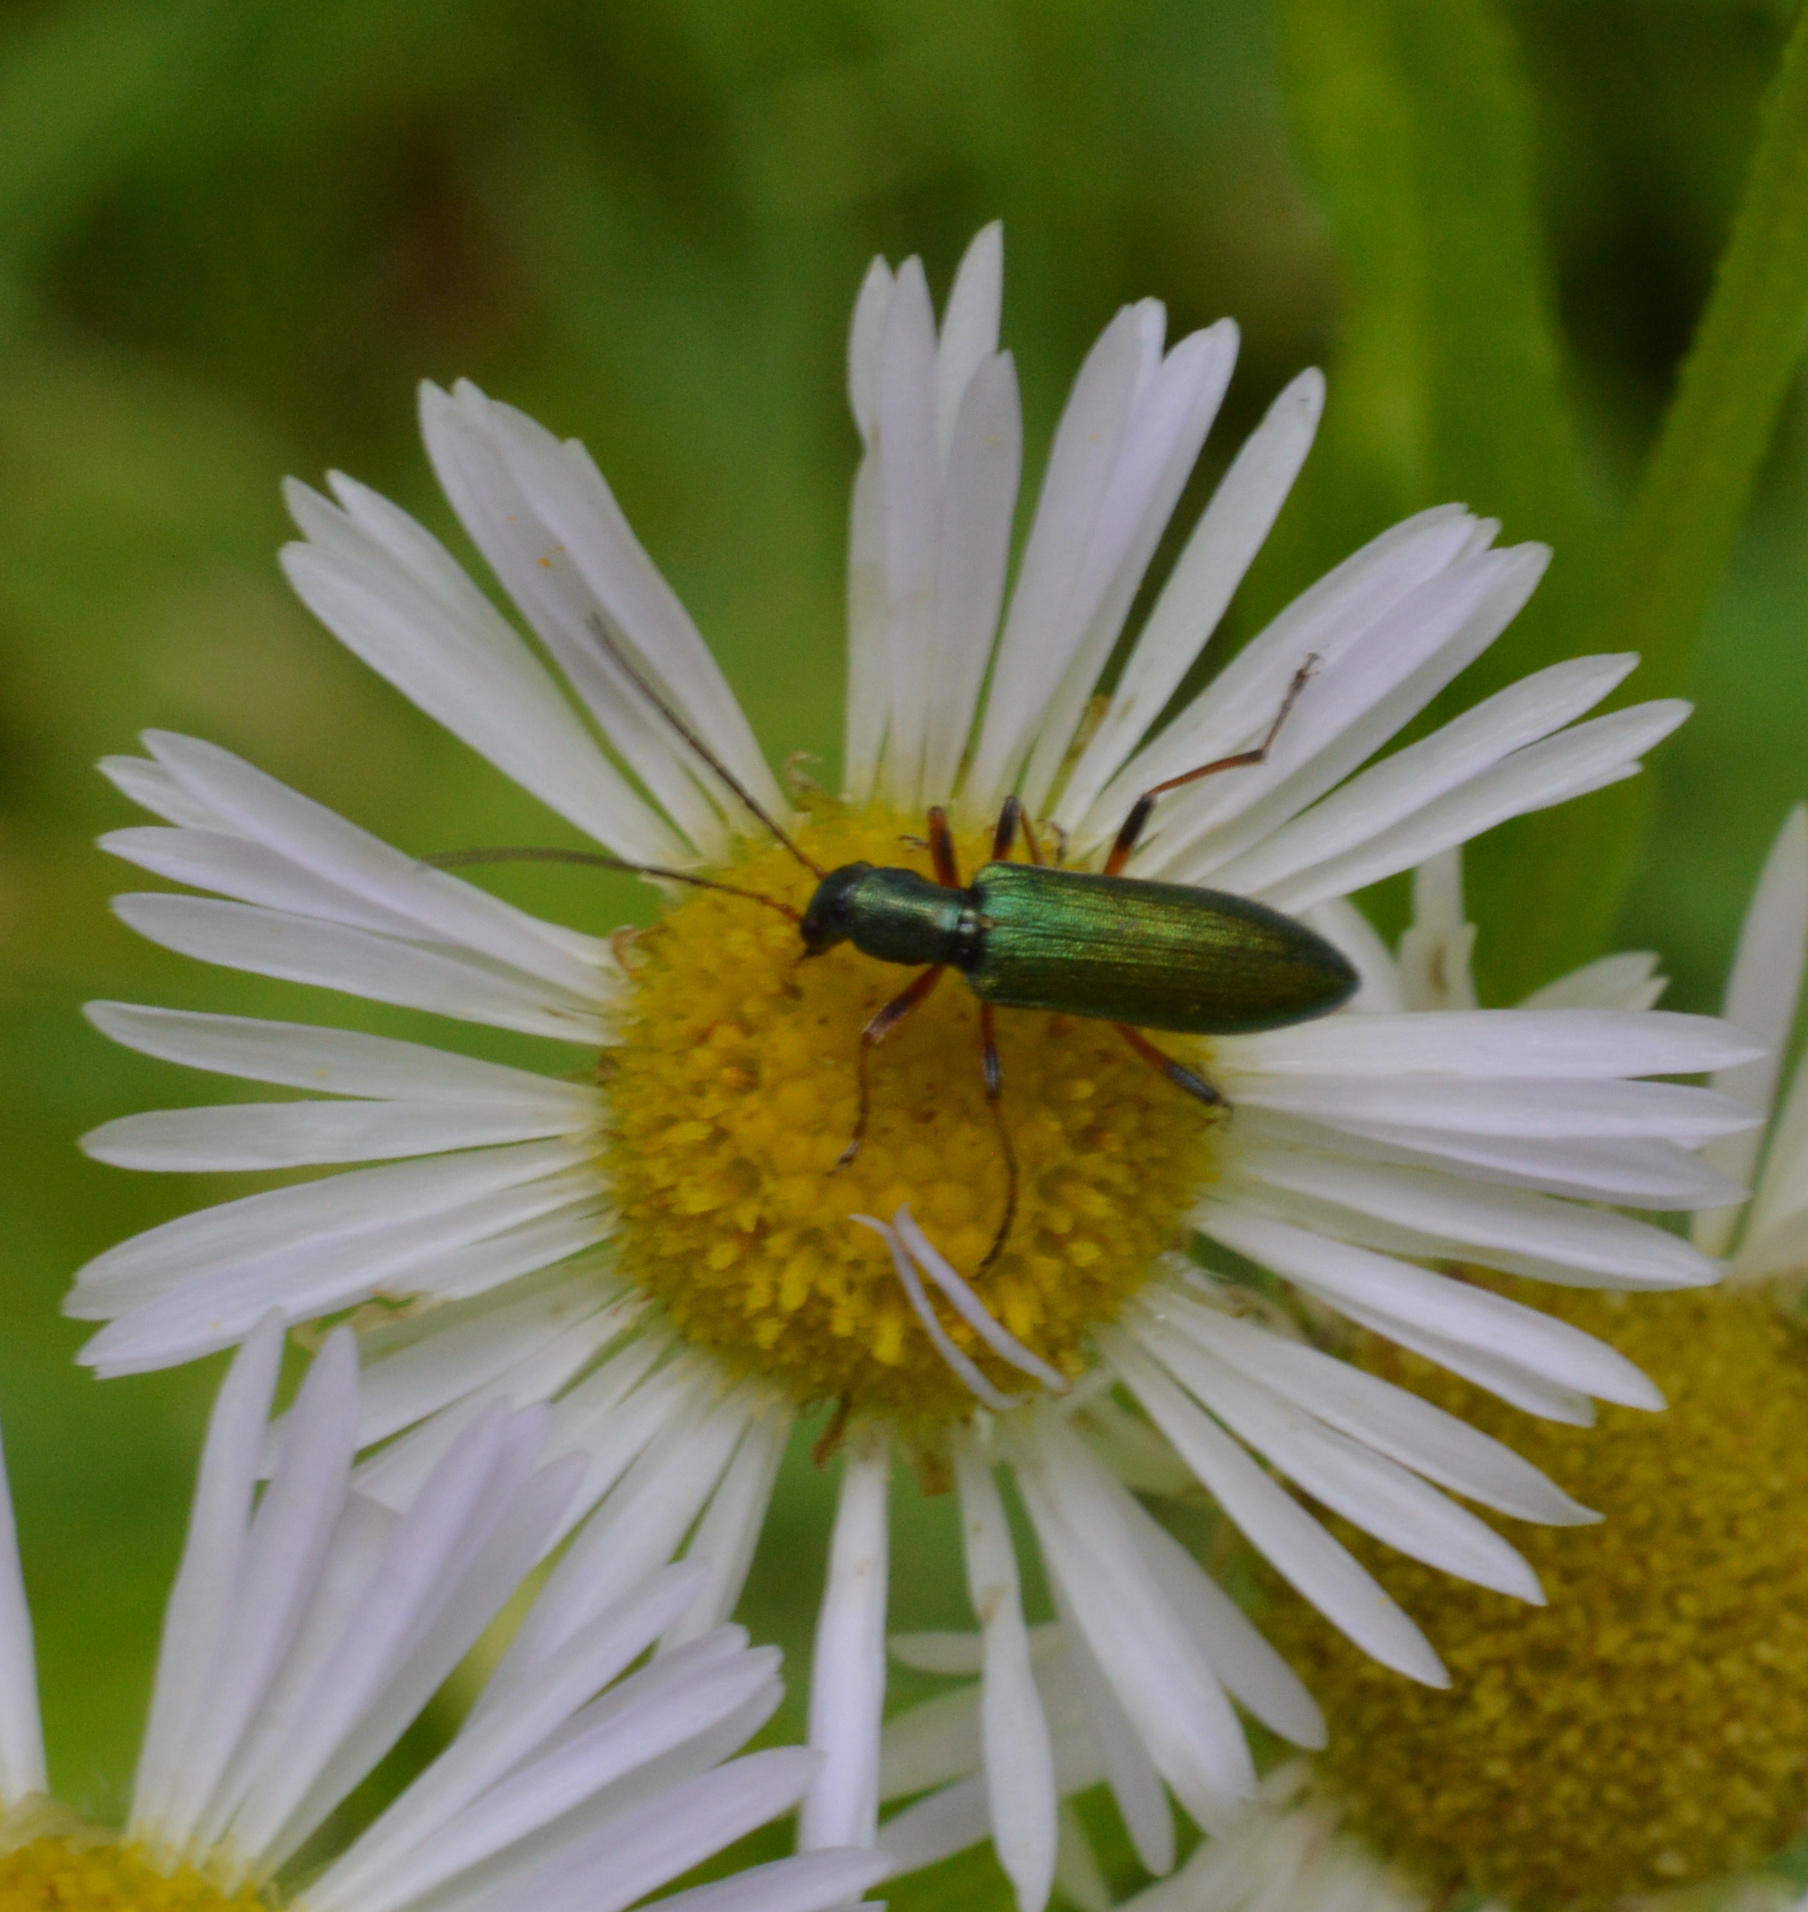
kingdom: Animalia
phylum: Arthropoda
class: Insecta
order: Coleoptera
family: Oedemeridae
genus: Chrysanthia
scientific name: Chrysanthia geniculata
